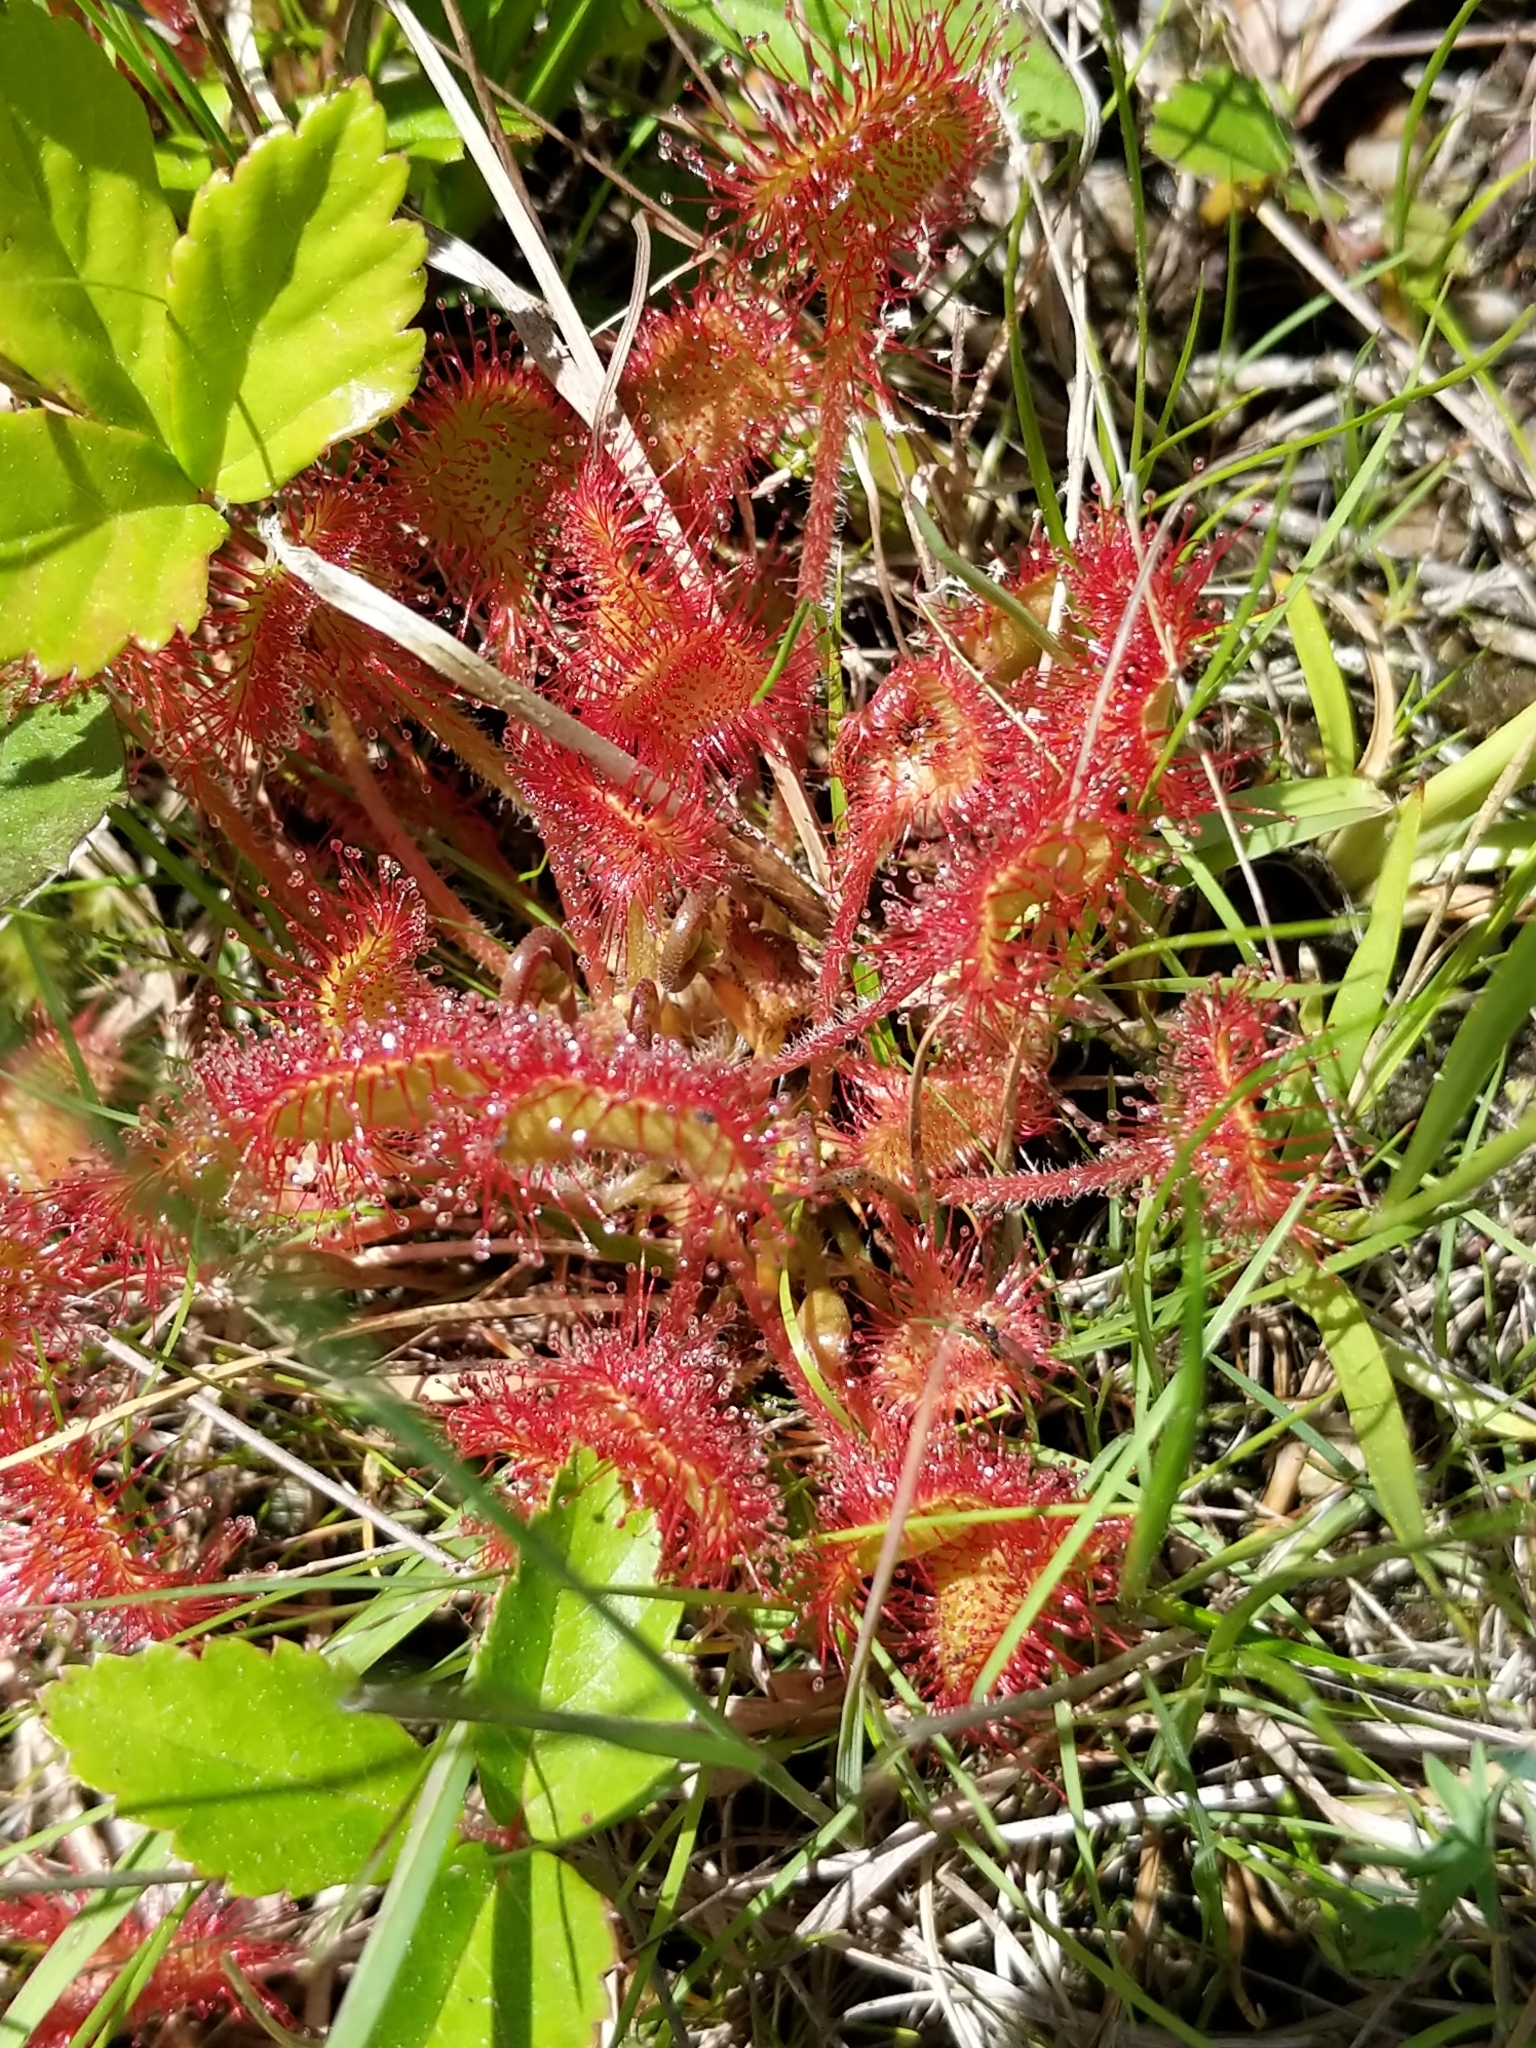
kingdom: Plantae
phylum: Tracheophyta
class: Magnoliopsida
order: Caryophyllales
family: Droseraceae
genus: Drosera
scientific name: Drosera rotundifolia
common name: Round-leaved sundew
